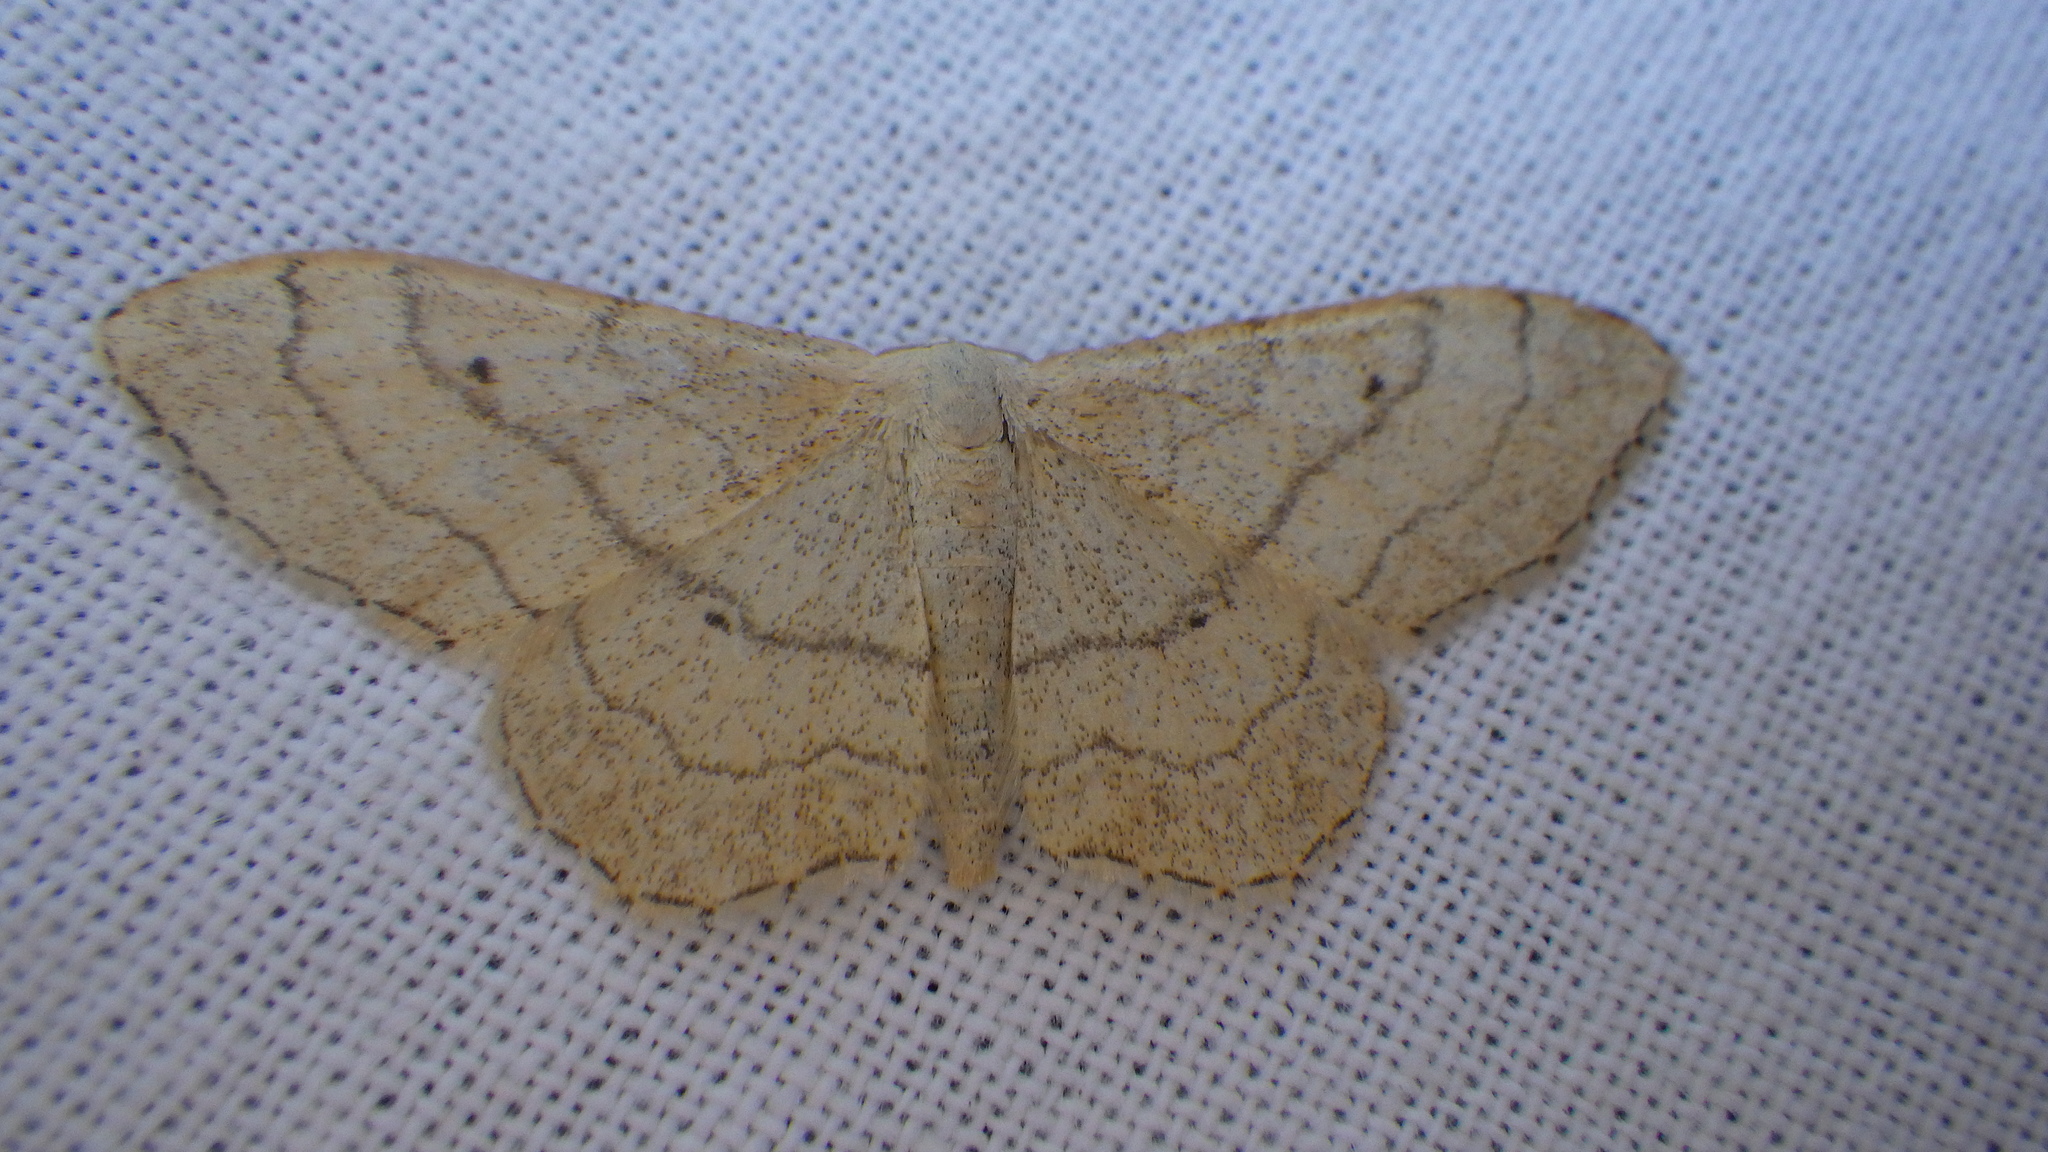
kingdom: Animalia
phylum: Arthropoda
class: Insecta
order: Lepidoptera
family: Geometridae
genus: Idaea
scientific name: Idaea aversata
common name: Riband wave
